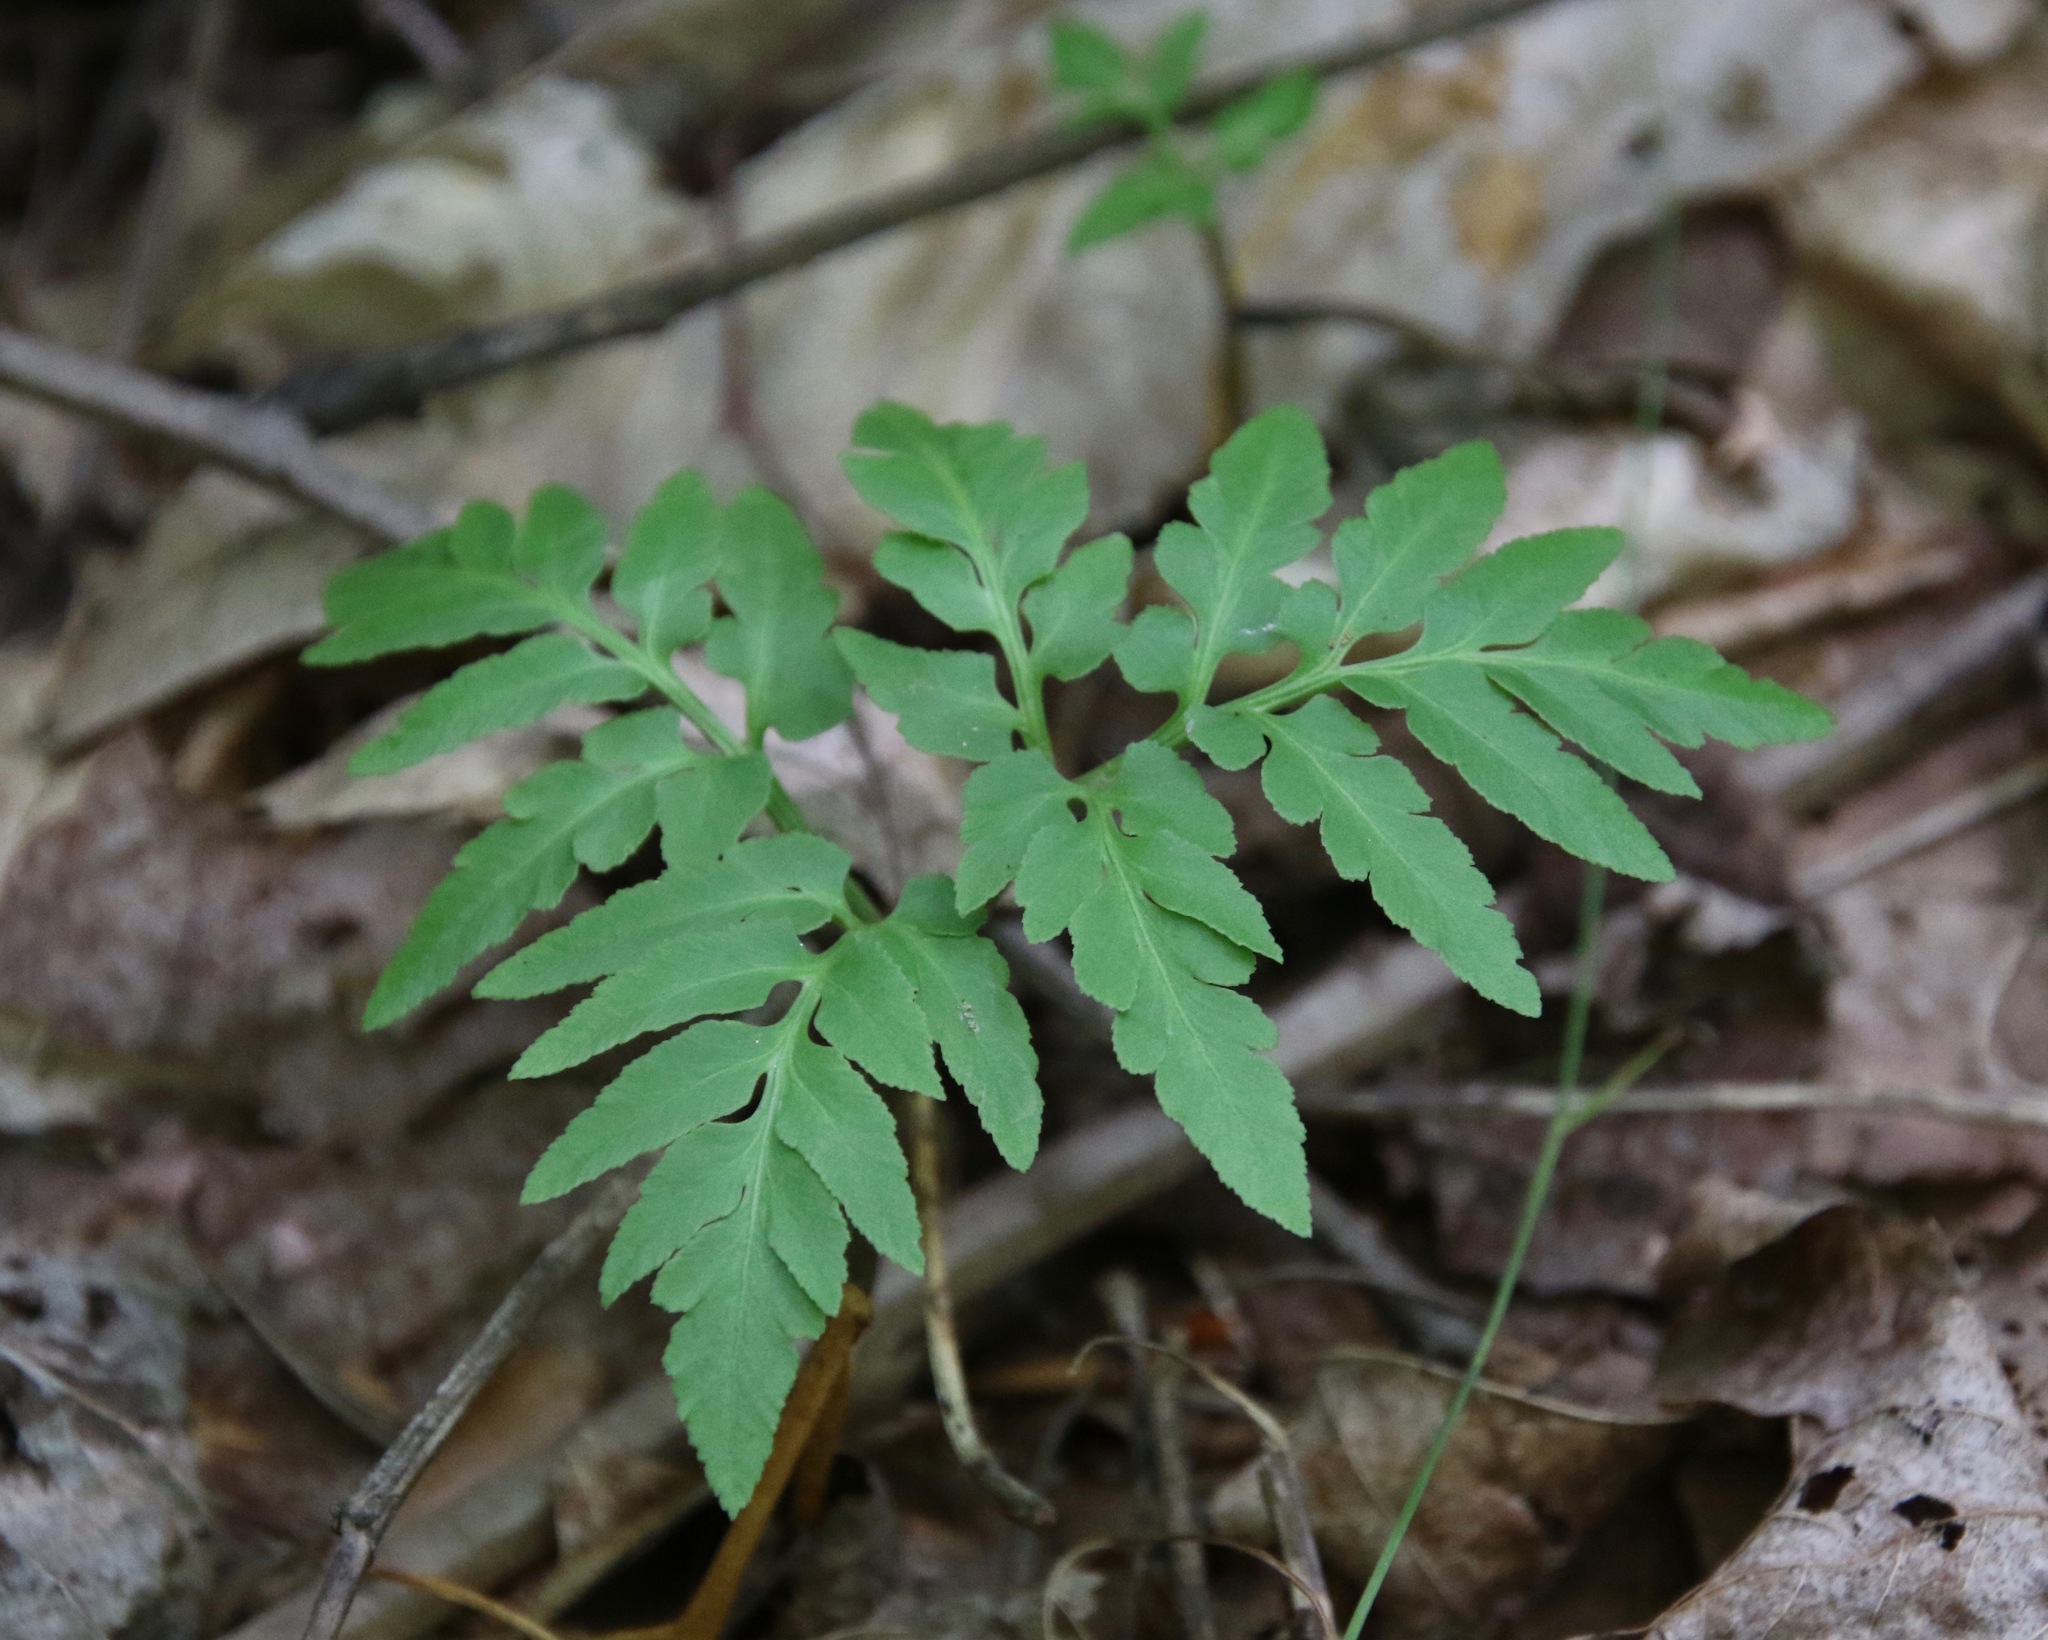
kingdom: Plantae
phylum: Tracheophyta
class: Polypodiopsida
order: Ophioglossales
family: Ophioglossaceae
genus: Sceptridium
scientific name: Sceptridium dissectum
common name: Cut-leaved grapefern
